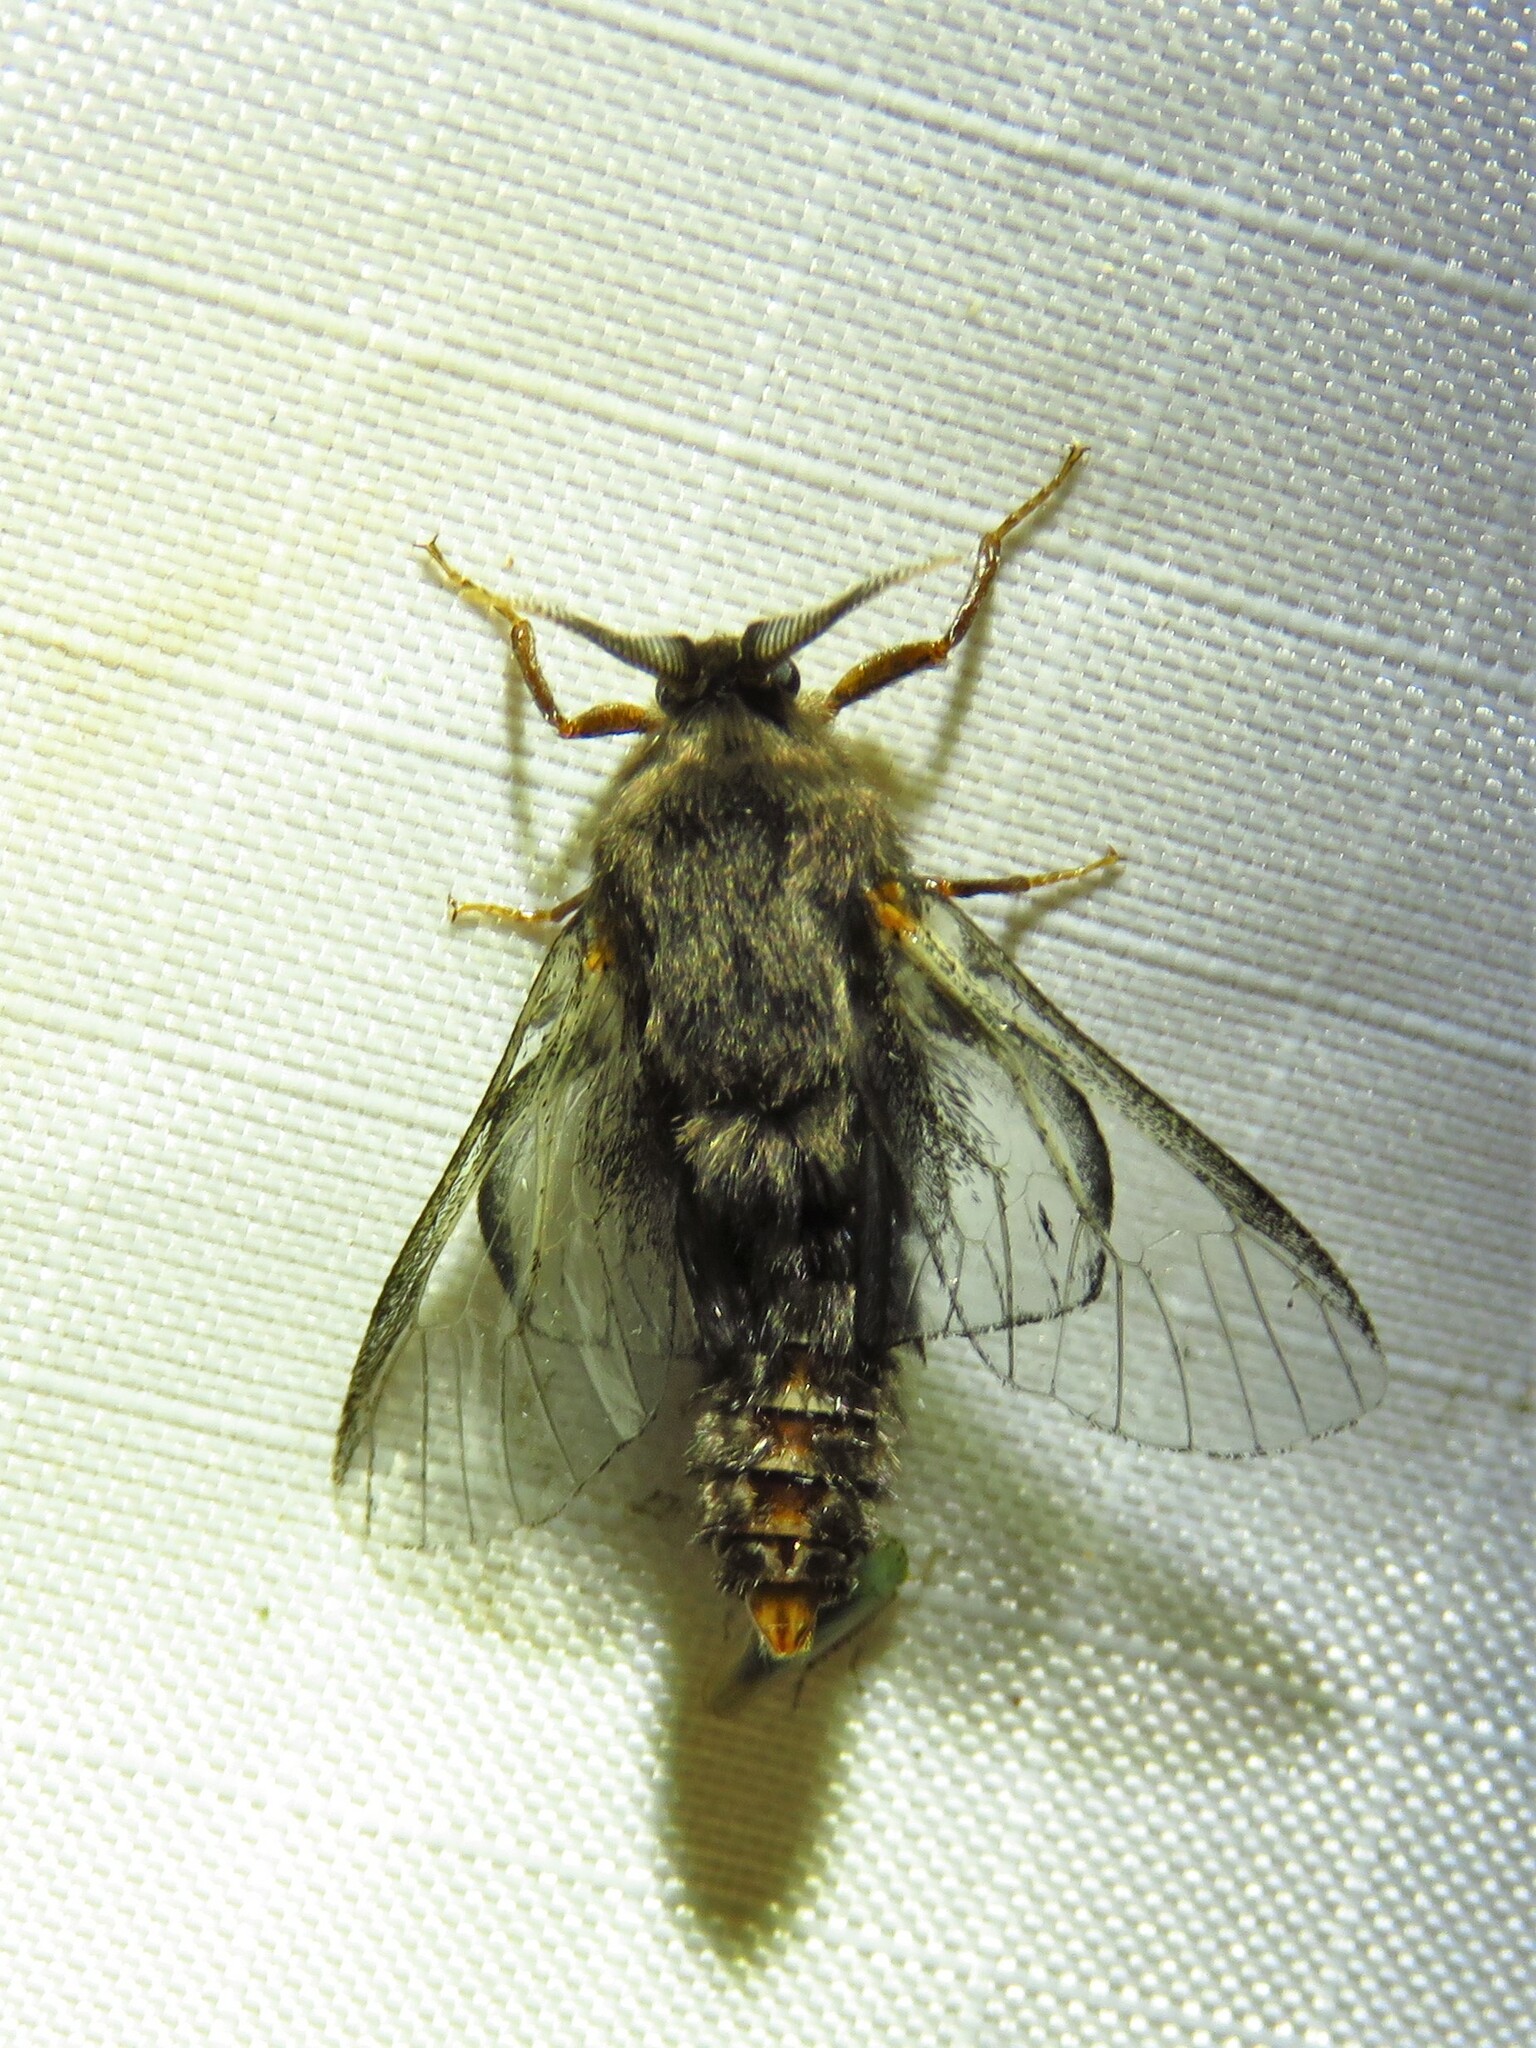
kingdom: Animalia
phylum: Arthropoda
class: Insecta
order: Lepidoptera
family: Psychidae
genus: Thyridopteryx
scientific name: Thyridopteryx ephemeraeformis
